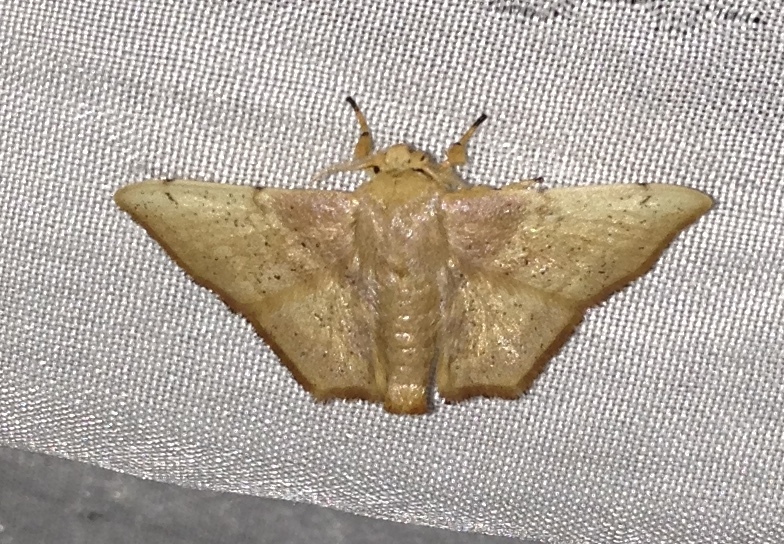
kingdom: Animalia
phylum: Arthropoda
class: Insecta
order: Lepidoptera
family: Mimallonidae
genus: Zaphanta
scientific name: Zaphanta infantilis
